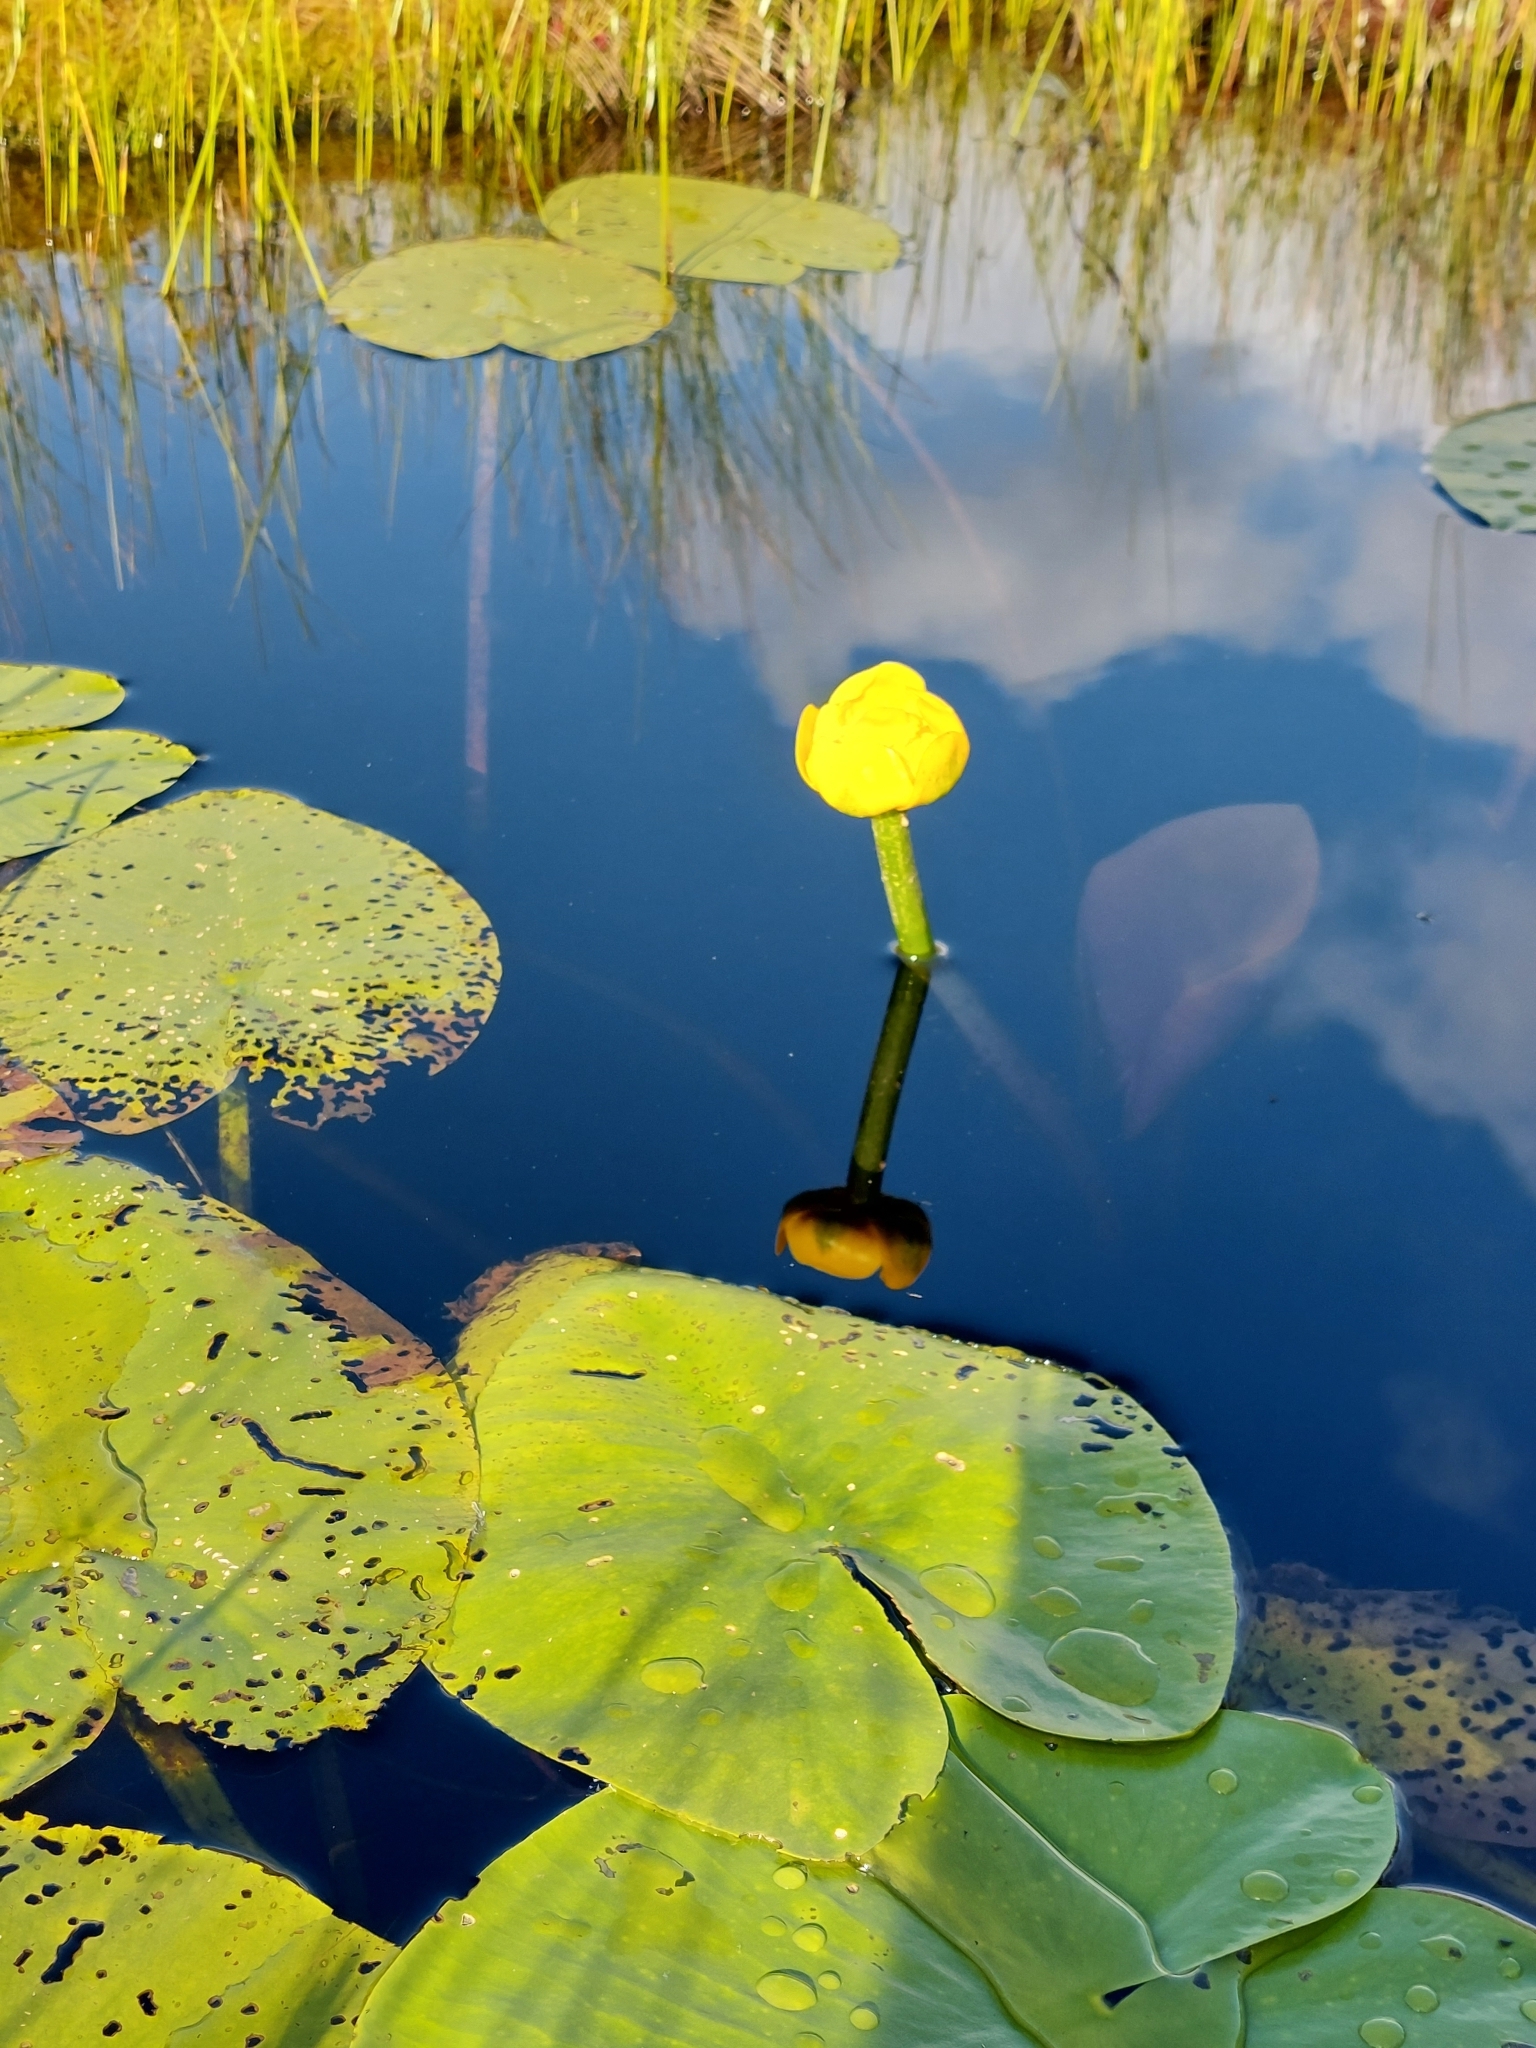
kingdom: Plantae
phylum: Tracheophyta
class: Magnoliopsida
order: Nymphaeales
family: Nymphaeaceae
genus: Nuphar
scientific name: Nuphar lutea
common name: Yellow water-lily
